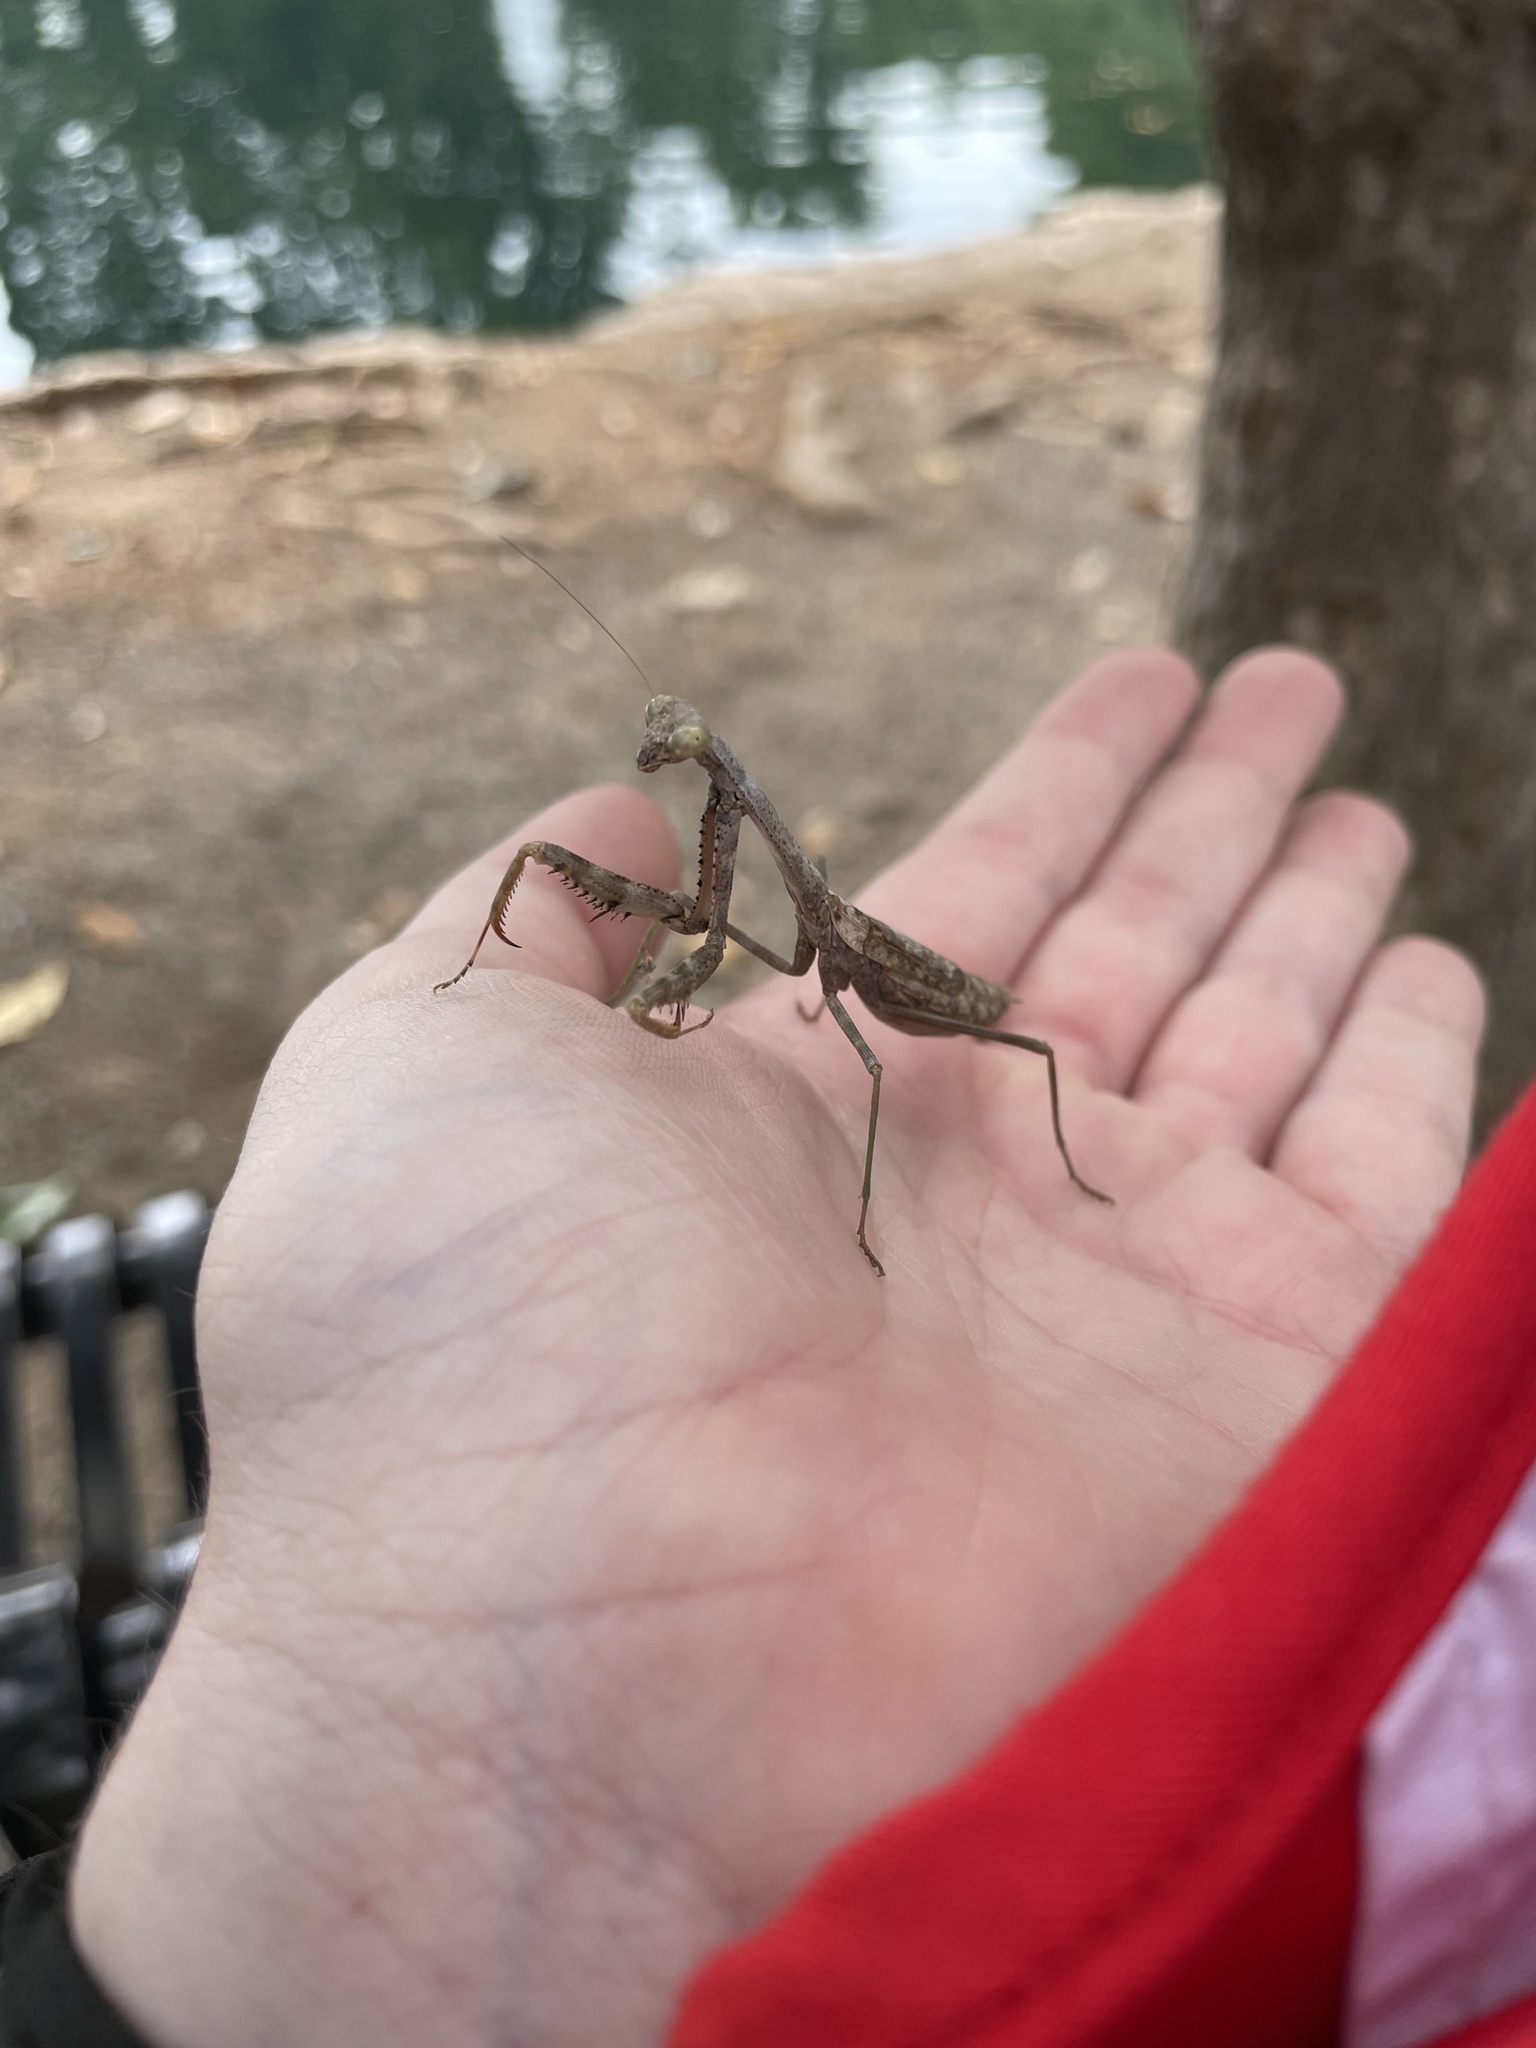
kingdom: Animalia
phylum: Arthropoda
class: Insecta
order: Mantodea
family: Mantidae
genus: Stagmomantis
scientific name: Stagmomantis carolina
